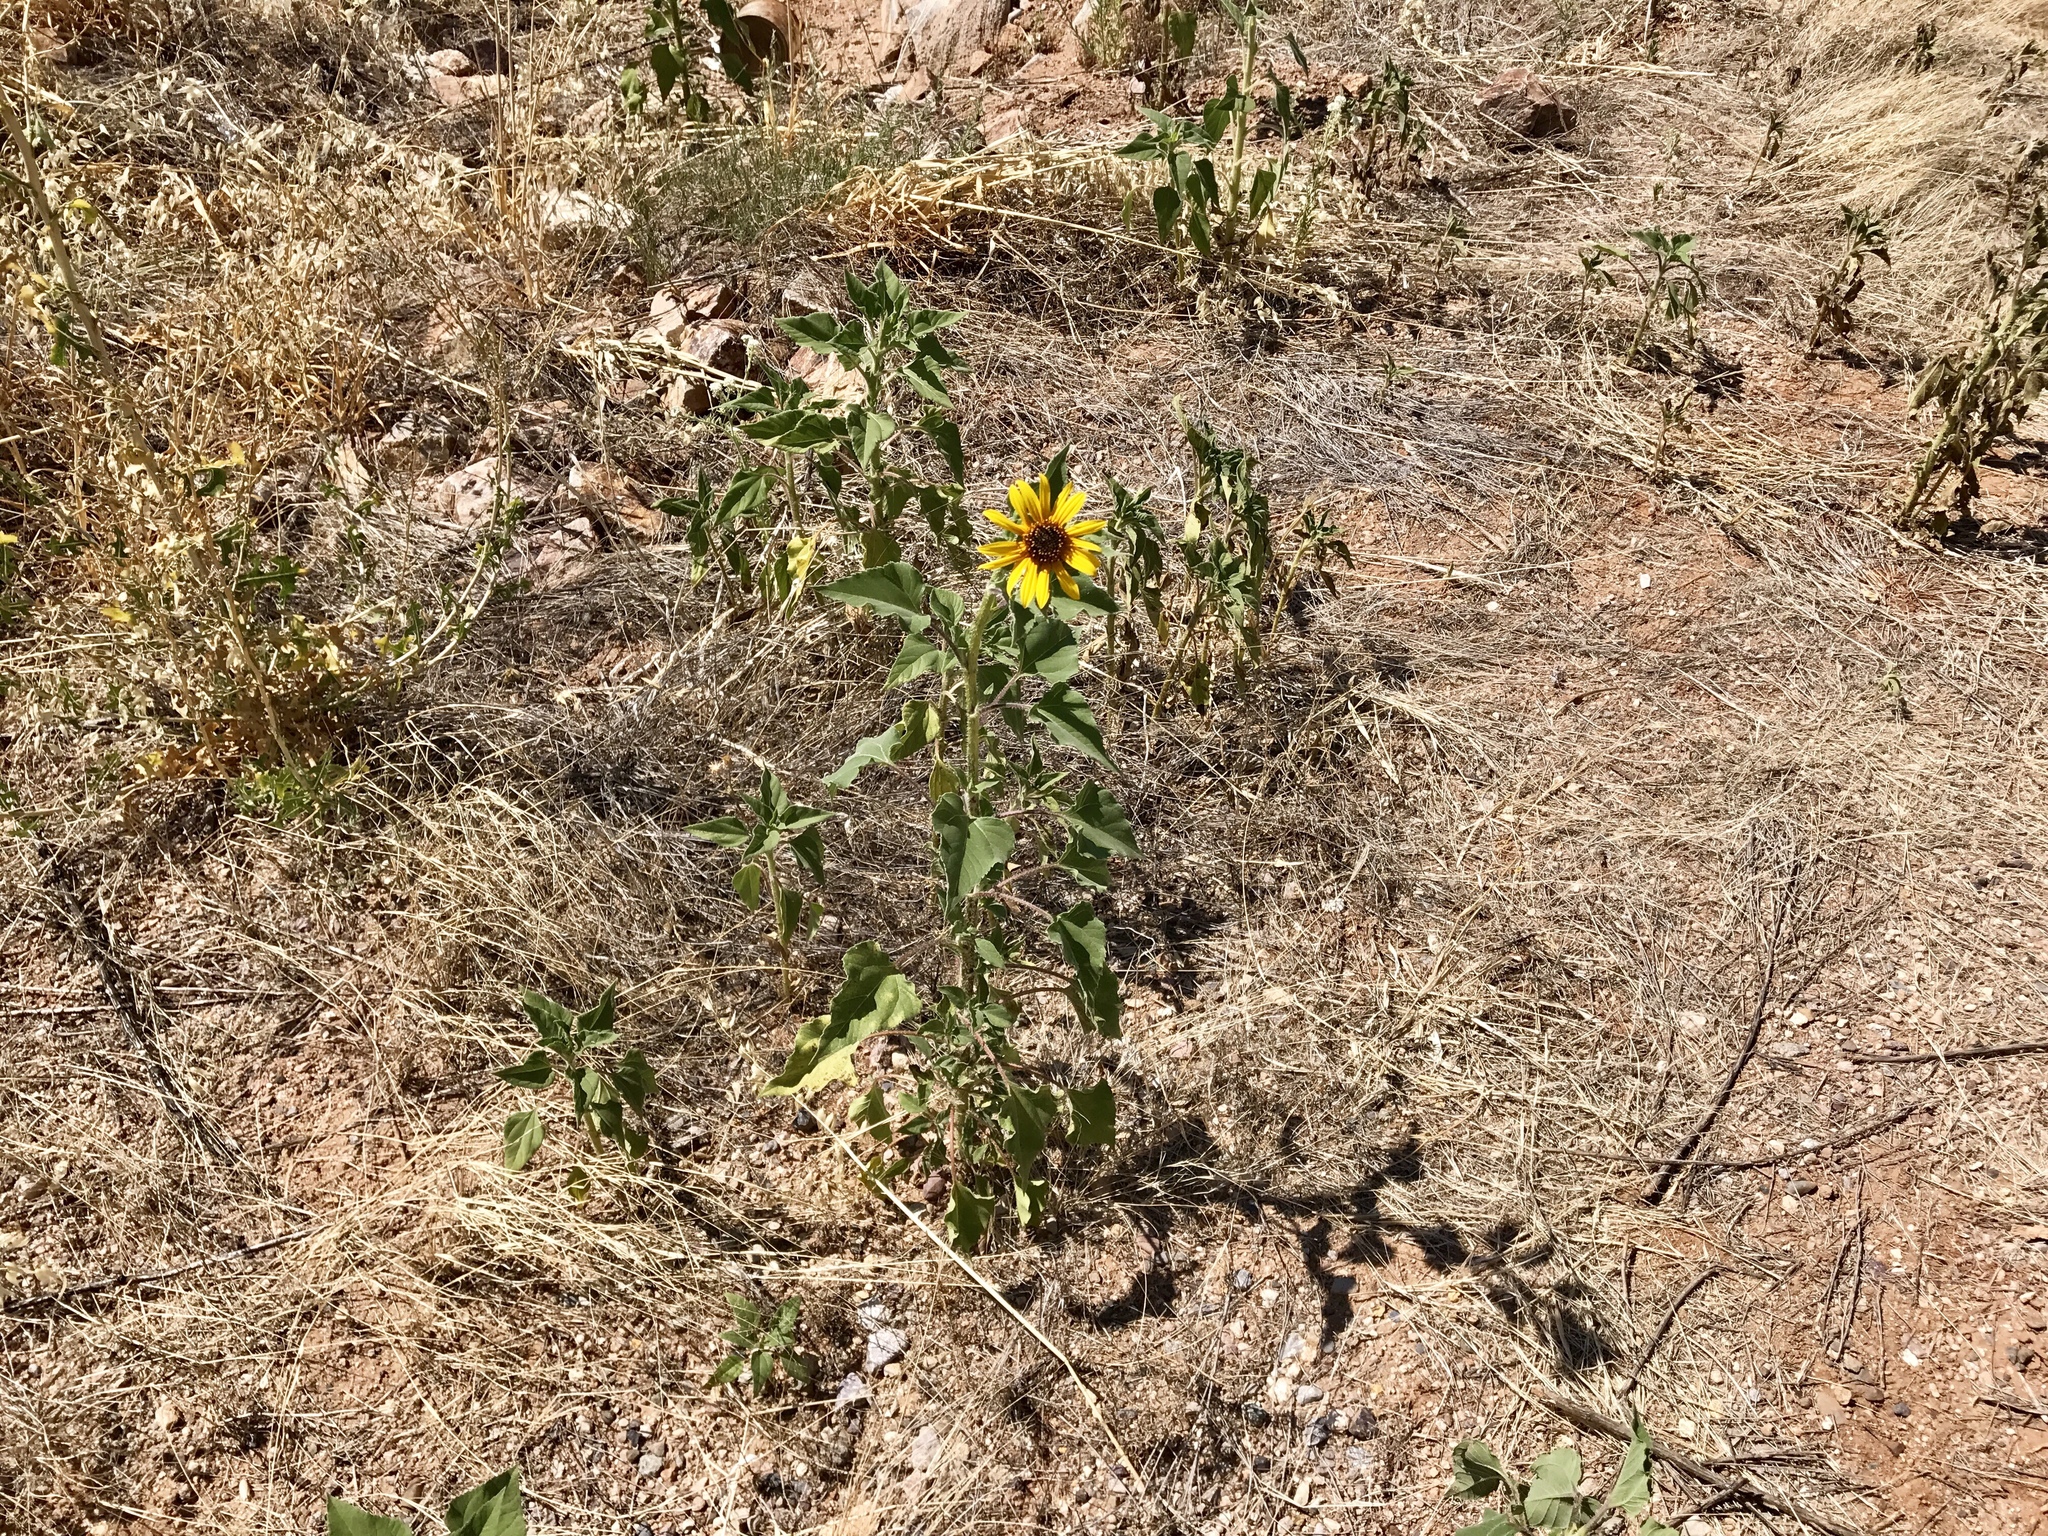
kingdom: Plantae
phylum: Tracheophyta
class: Magnoliopsida
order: Asterales
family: Asteraceae
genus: Helianthus
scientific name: Helianthus annuus
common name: Sunflower
